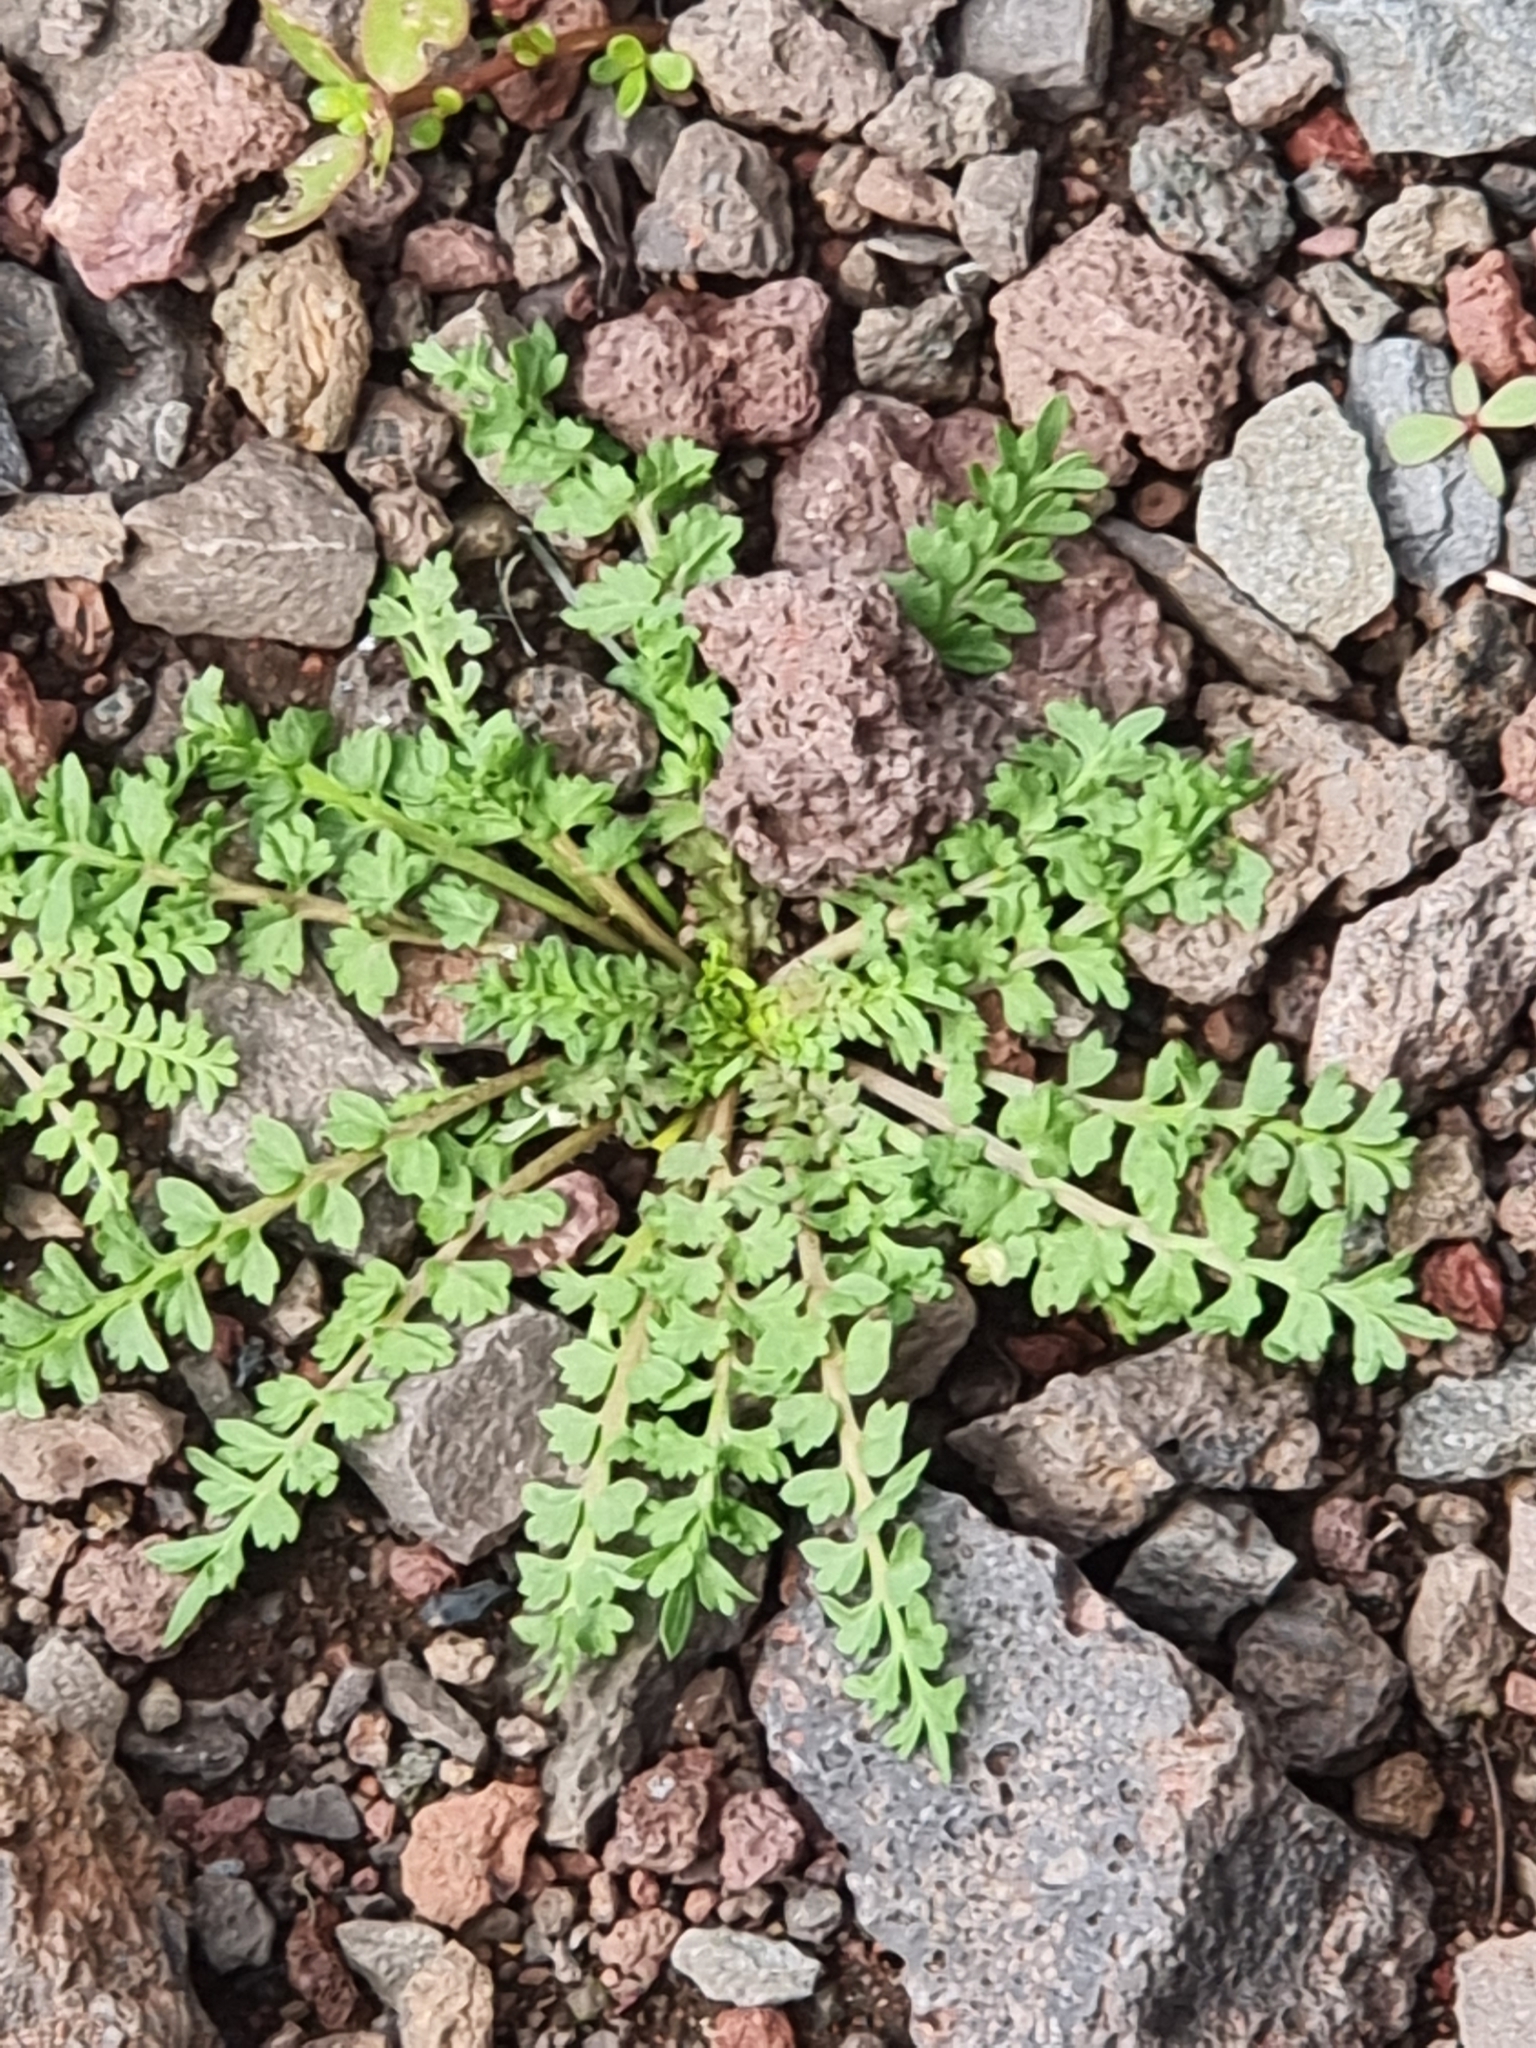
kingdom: Plantae
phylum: Tracheophyta
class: Magnoliopsida
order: Brassicales
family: Brassicaceae
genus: Lepidium
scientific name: Lepidium didymum
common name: Lesser swinecress
